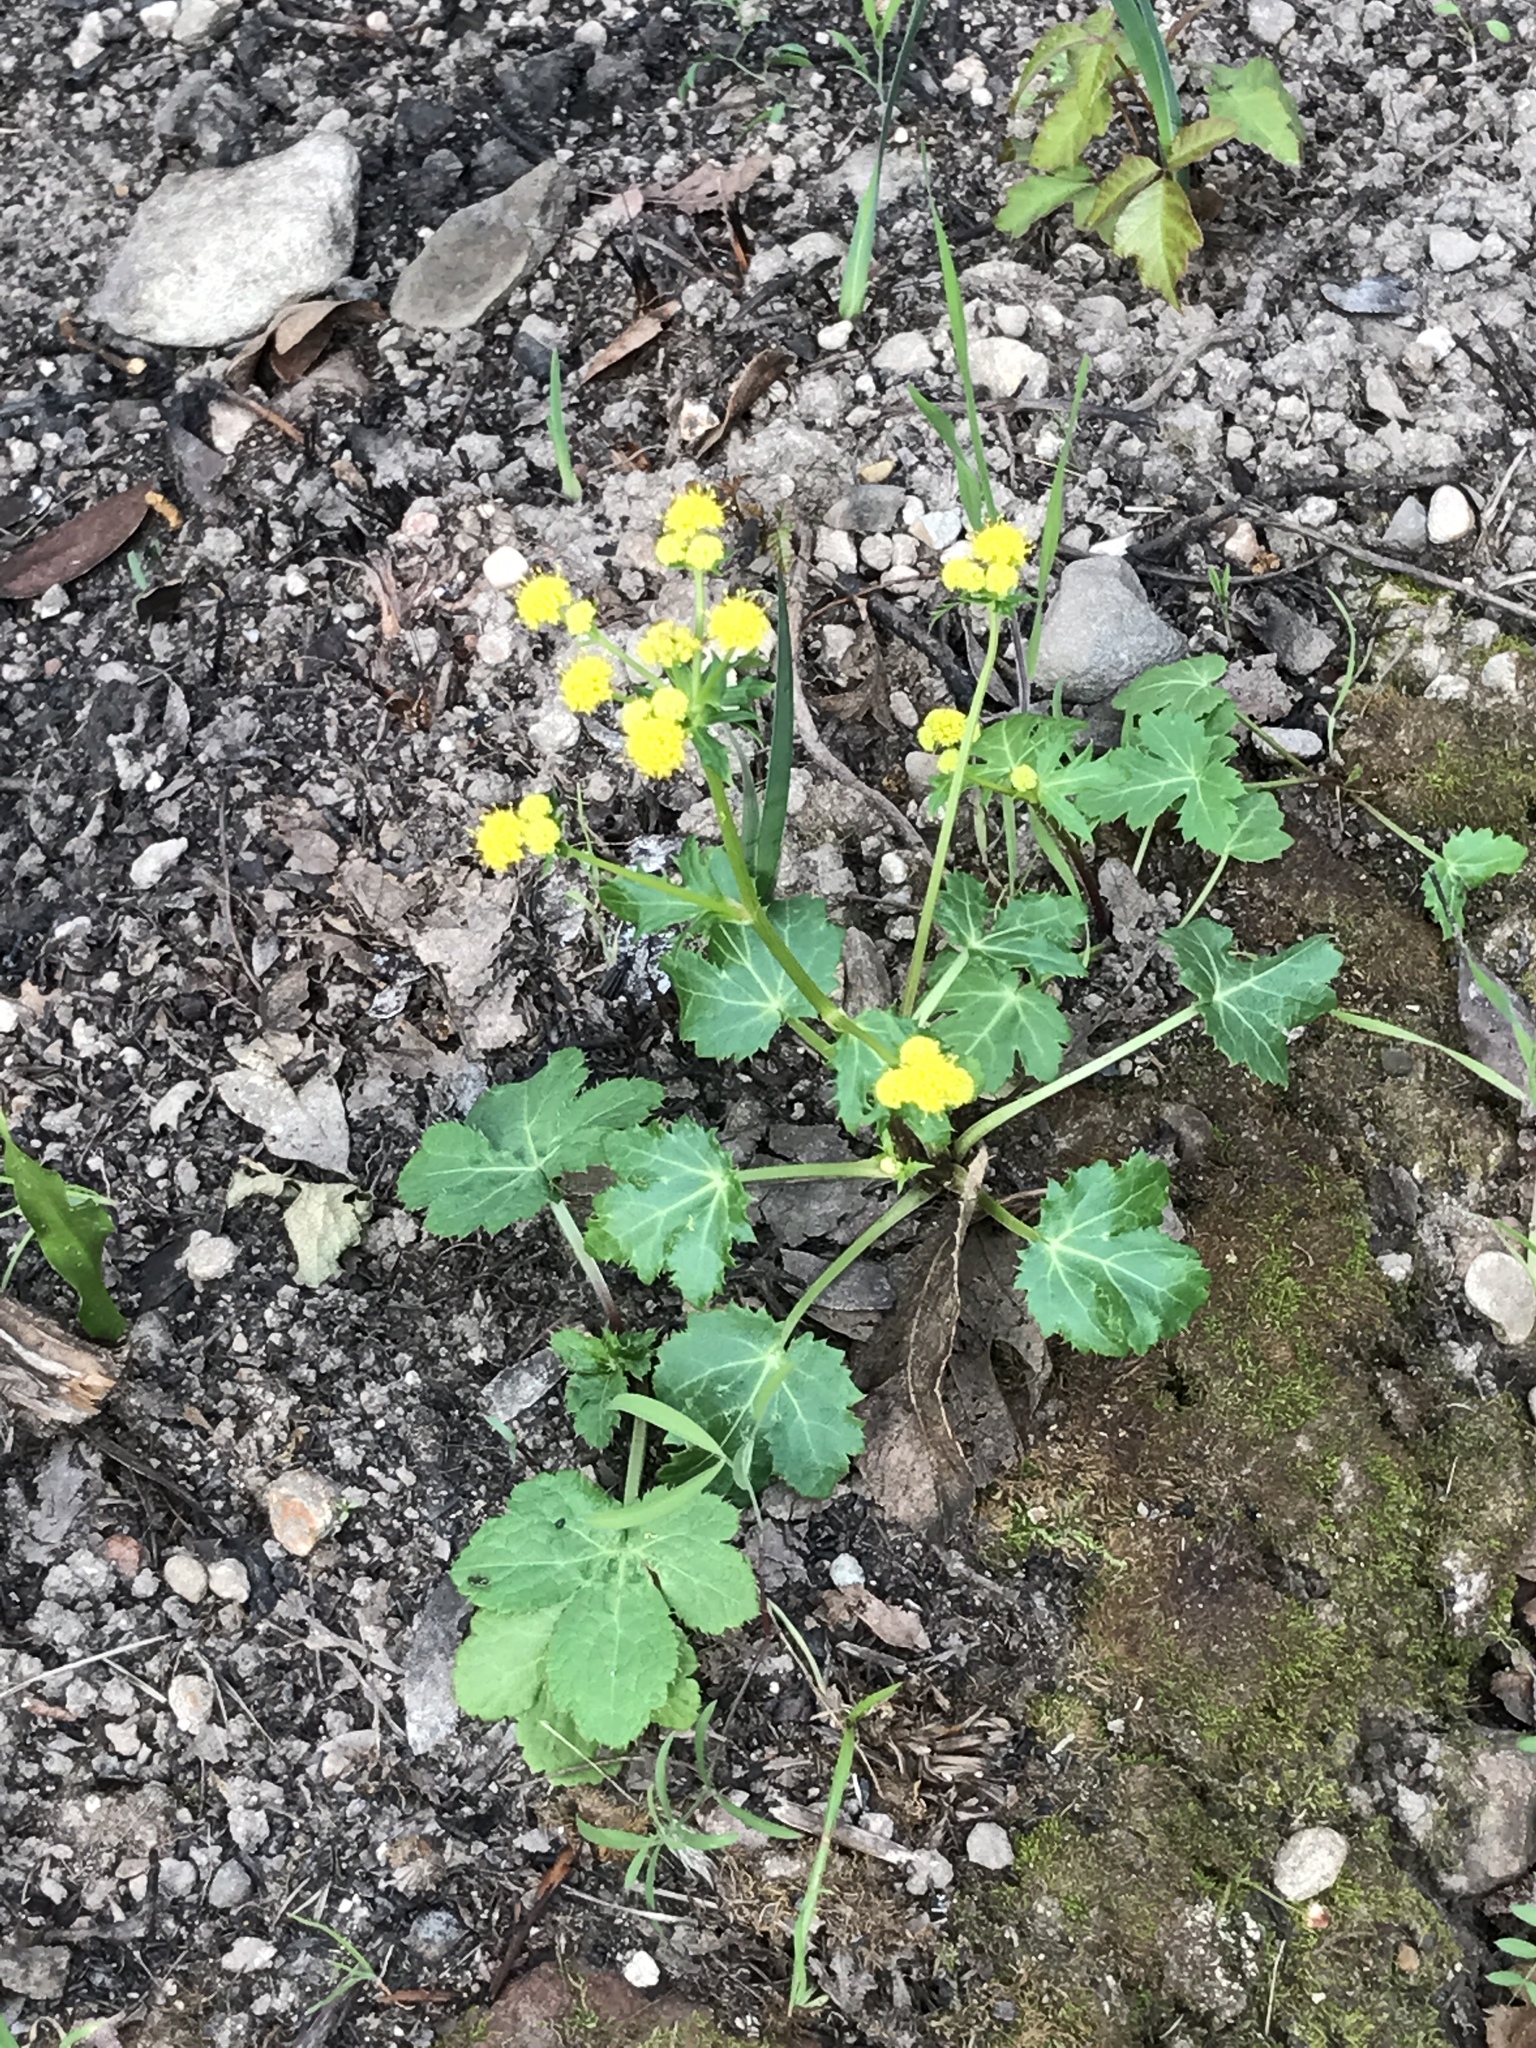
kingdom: Plantae
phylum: Tracheophyta
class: Magnoliopsida
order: Apiales
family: Apiaceae
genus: Sanicula
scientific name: Sanicula crassicaulis
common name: Western snakeroot
